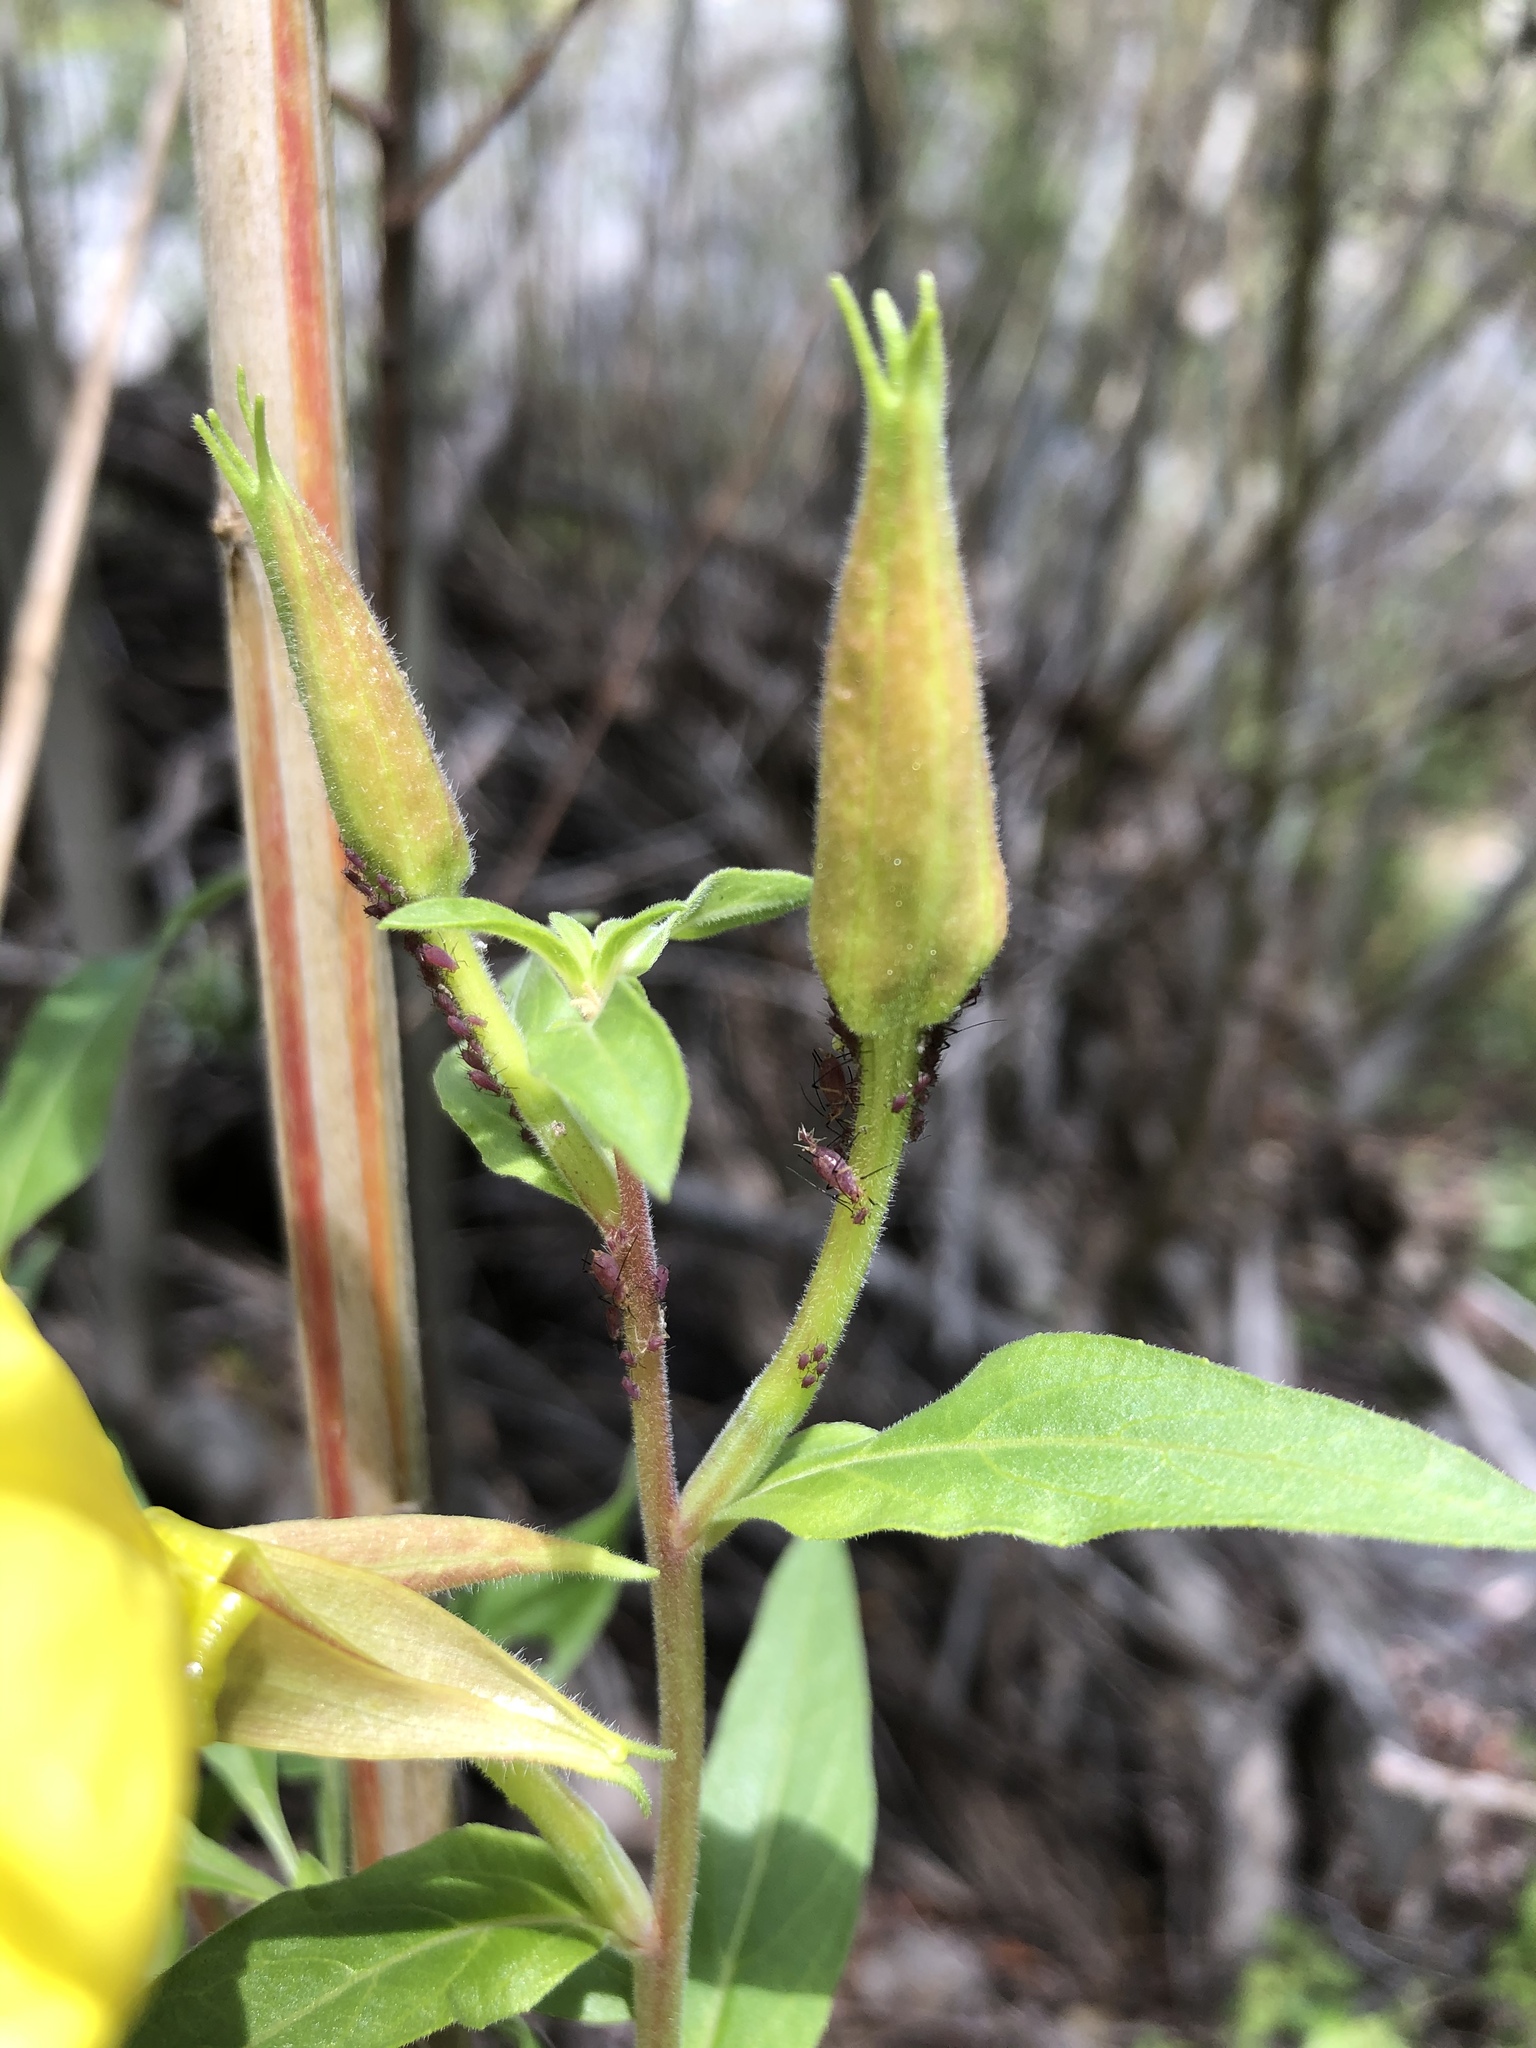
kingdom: Plantae
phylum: Tracheophyta
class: Magnoliopsida
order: Myrtales
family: Onagraceae
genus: Oenothera
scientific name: Oenothera elata
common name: Hooker's evening-primrose
